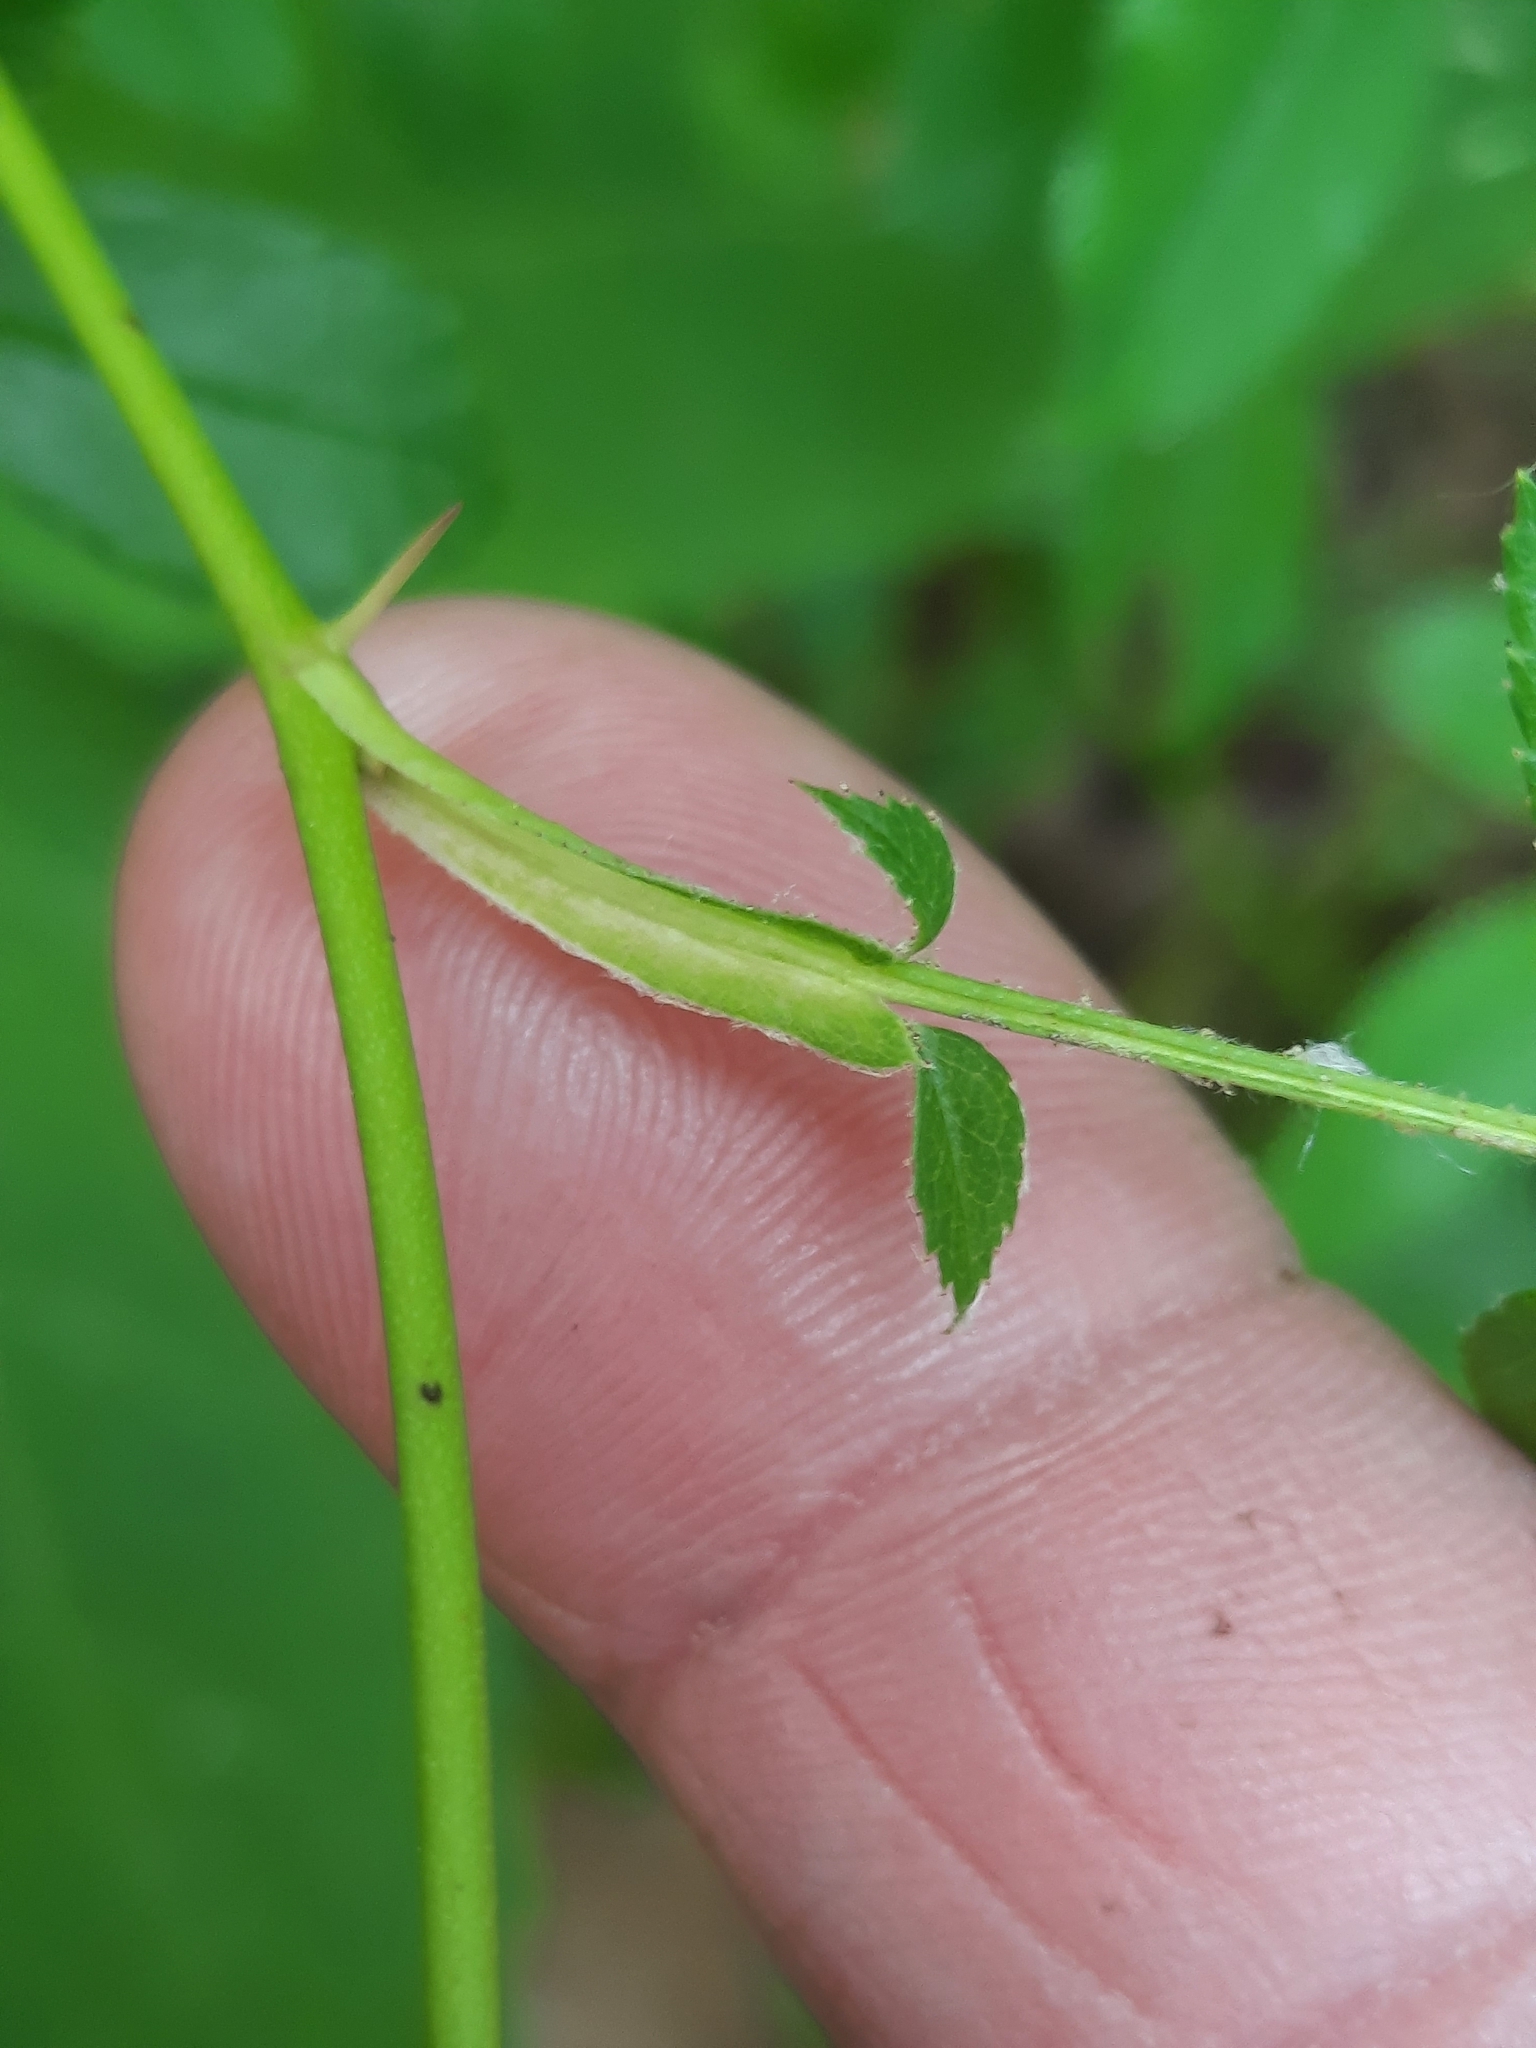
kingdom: Plantae
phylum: Tracheophyta
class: Magnoliopsida
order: Rosales
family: Rosaceae
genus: Rosa
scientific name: Rosa carolina
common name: Pasture rose
